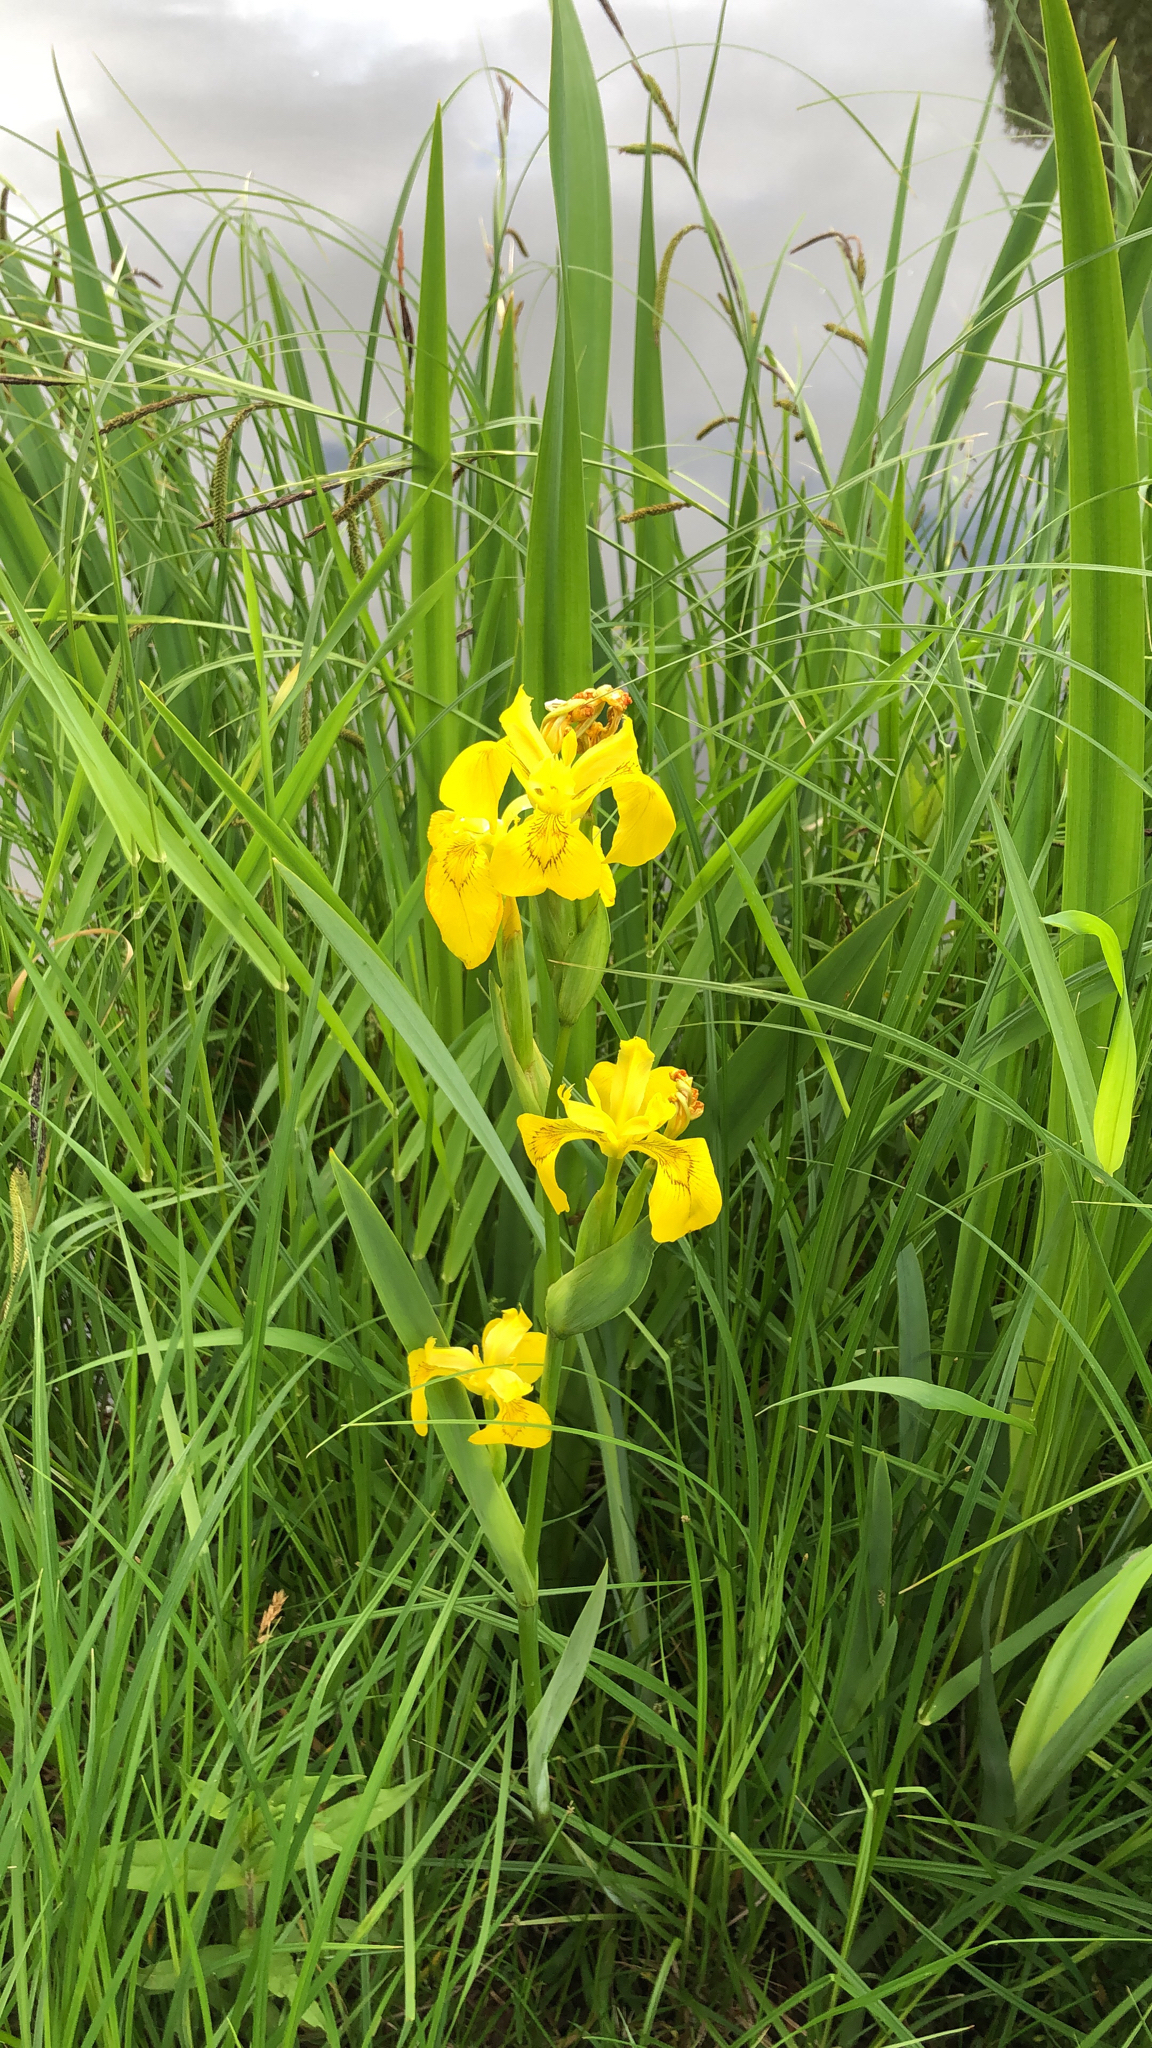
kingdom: Plantae
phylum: Tracheophyta
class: Liliopsida
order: Asparagales
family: Iridaceae
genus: Iris
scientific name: Iris pseudacorus
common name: Yellow flag
